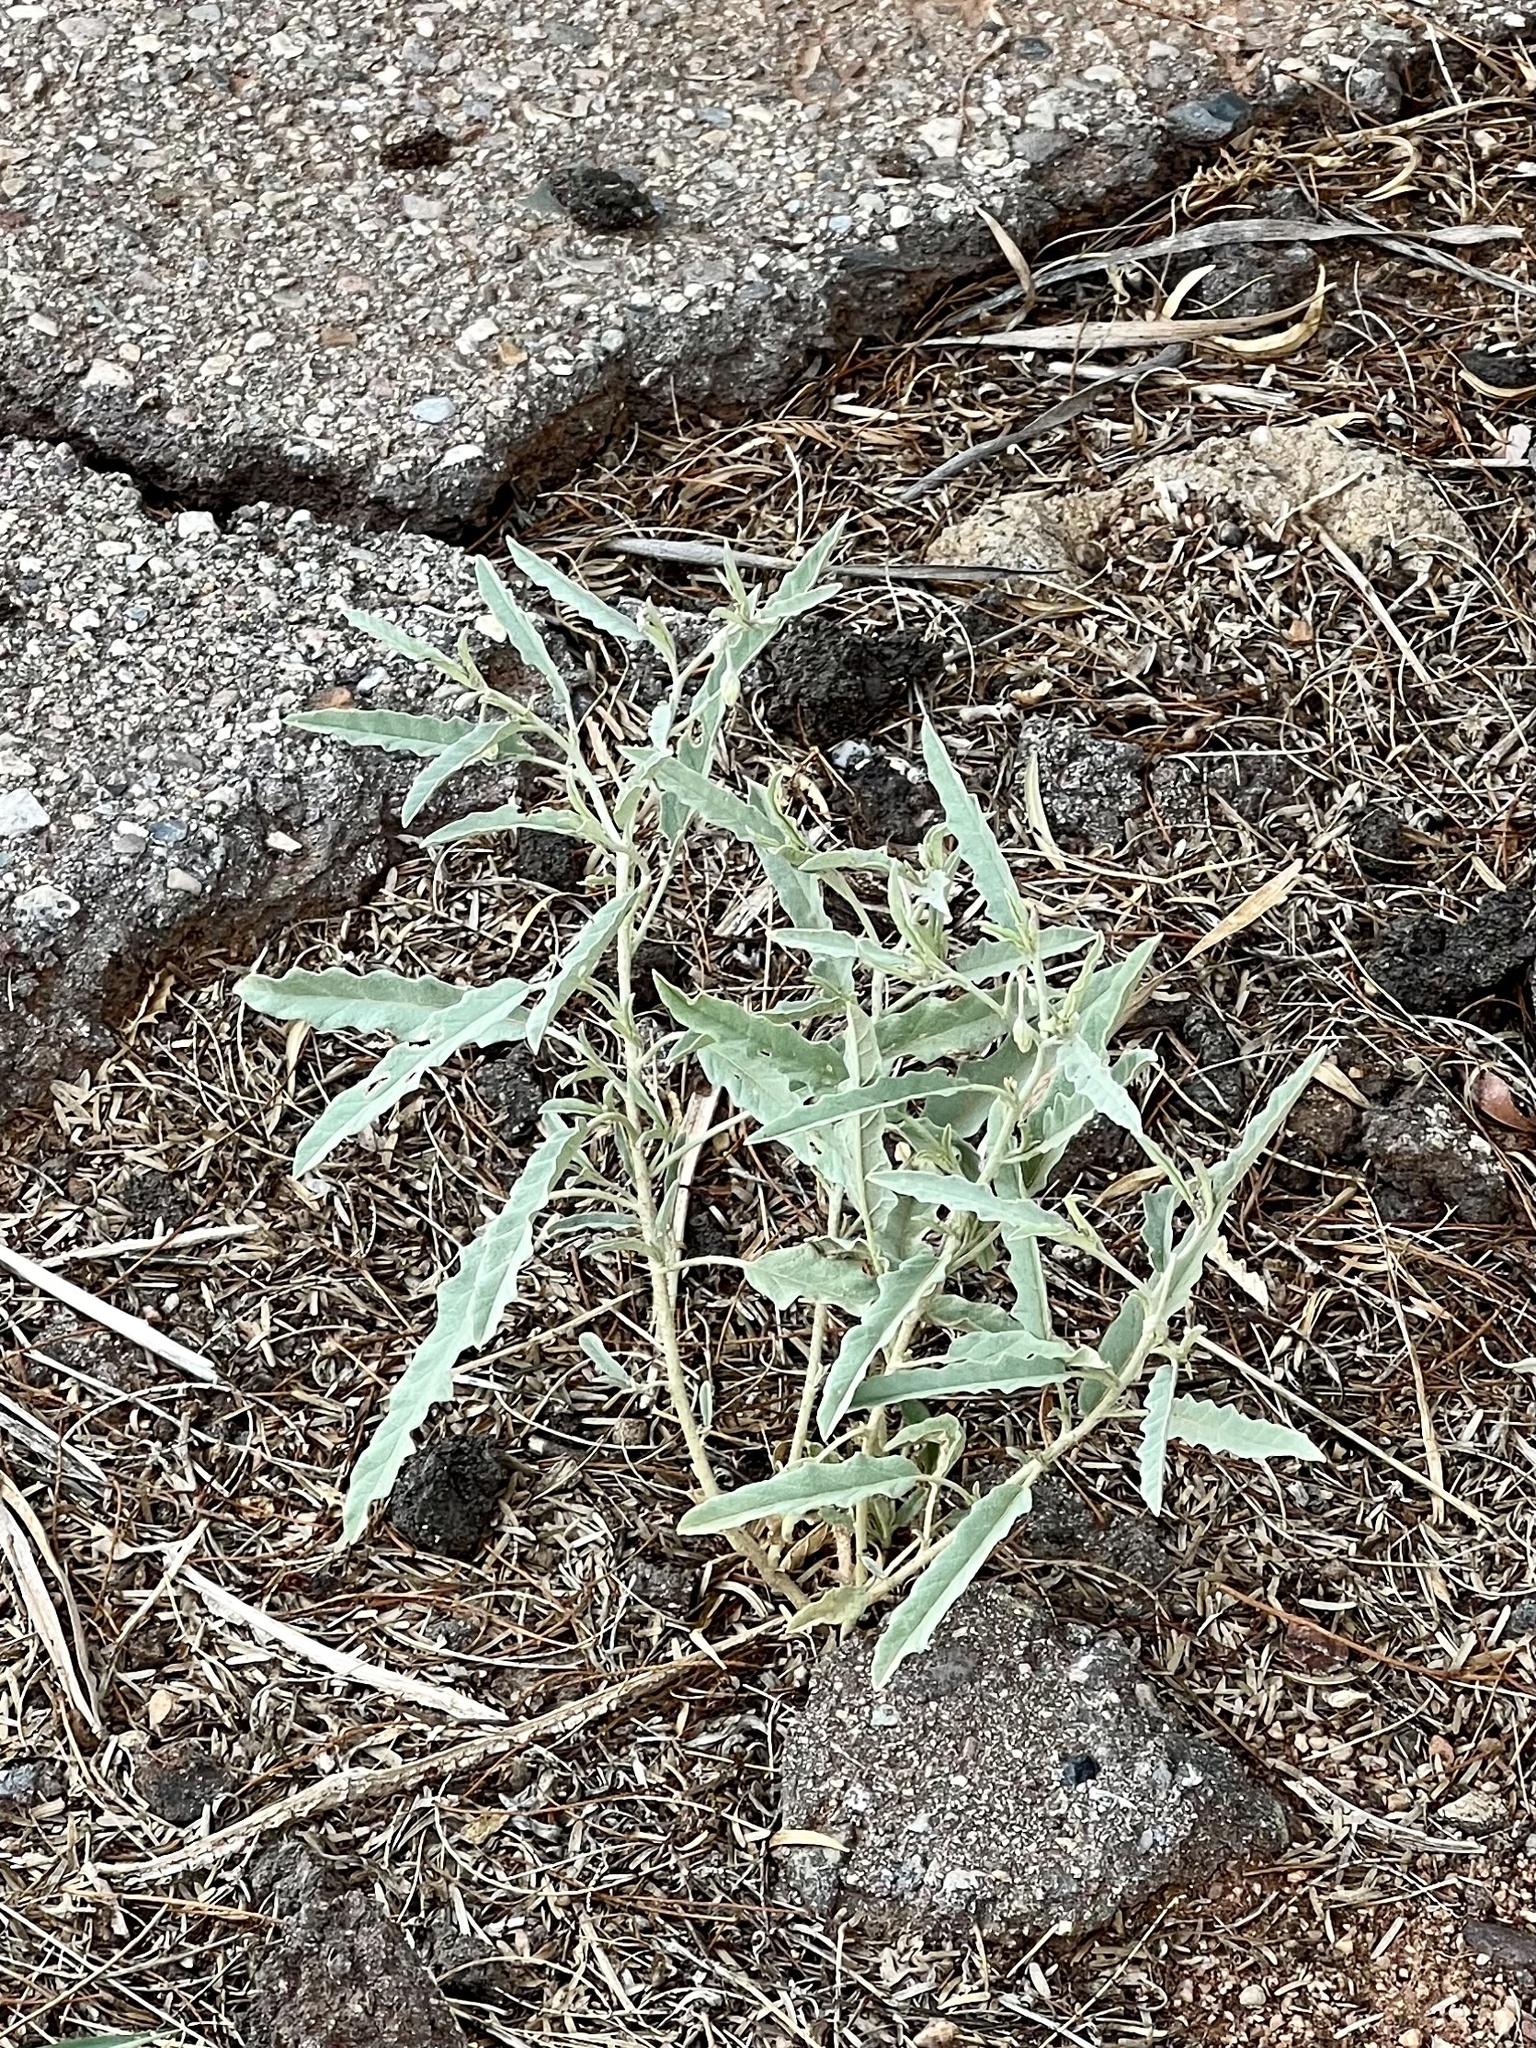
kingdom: Plantae
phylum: Tracheophyta
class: Magnoliopsida
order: Solanales
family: Solanaceae
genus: Solanum
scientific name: Solanum elaeagnifolium
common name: Silverleaf nightshade
